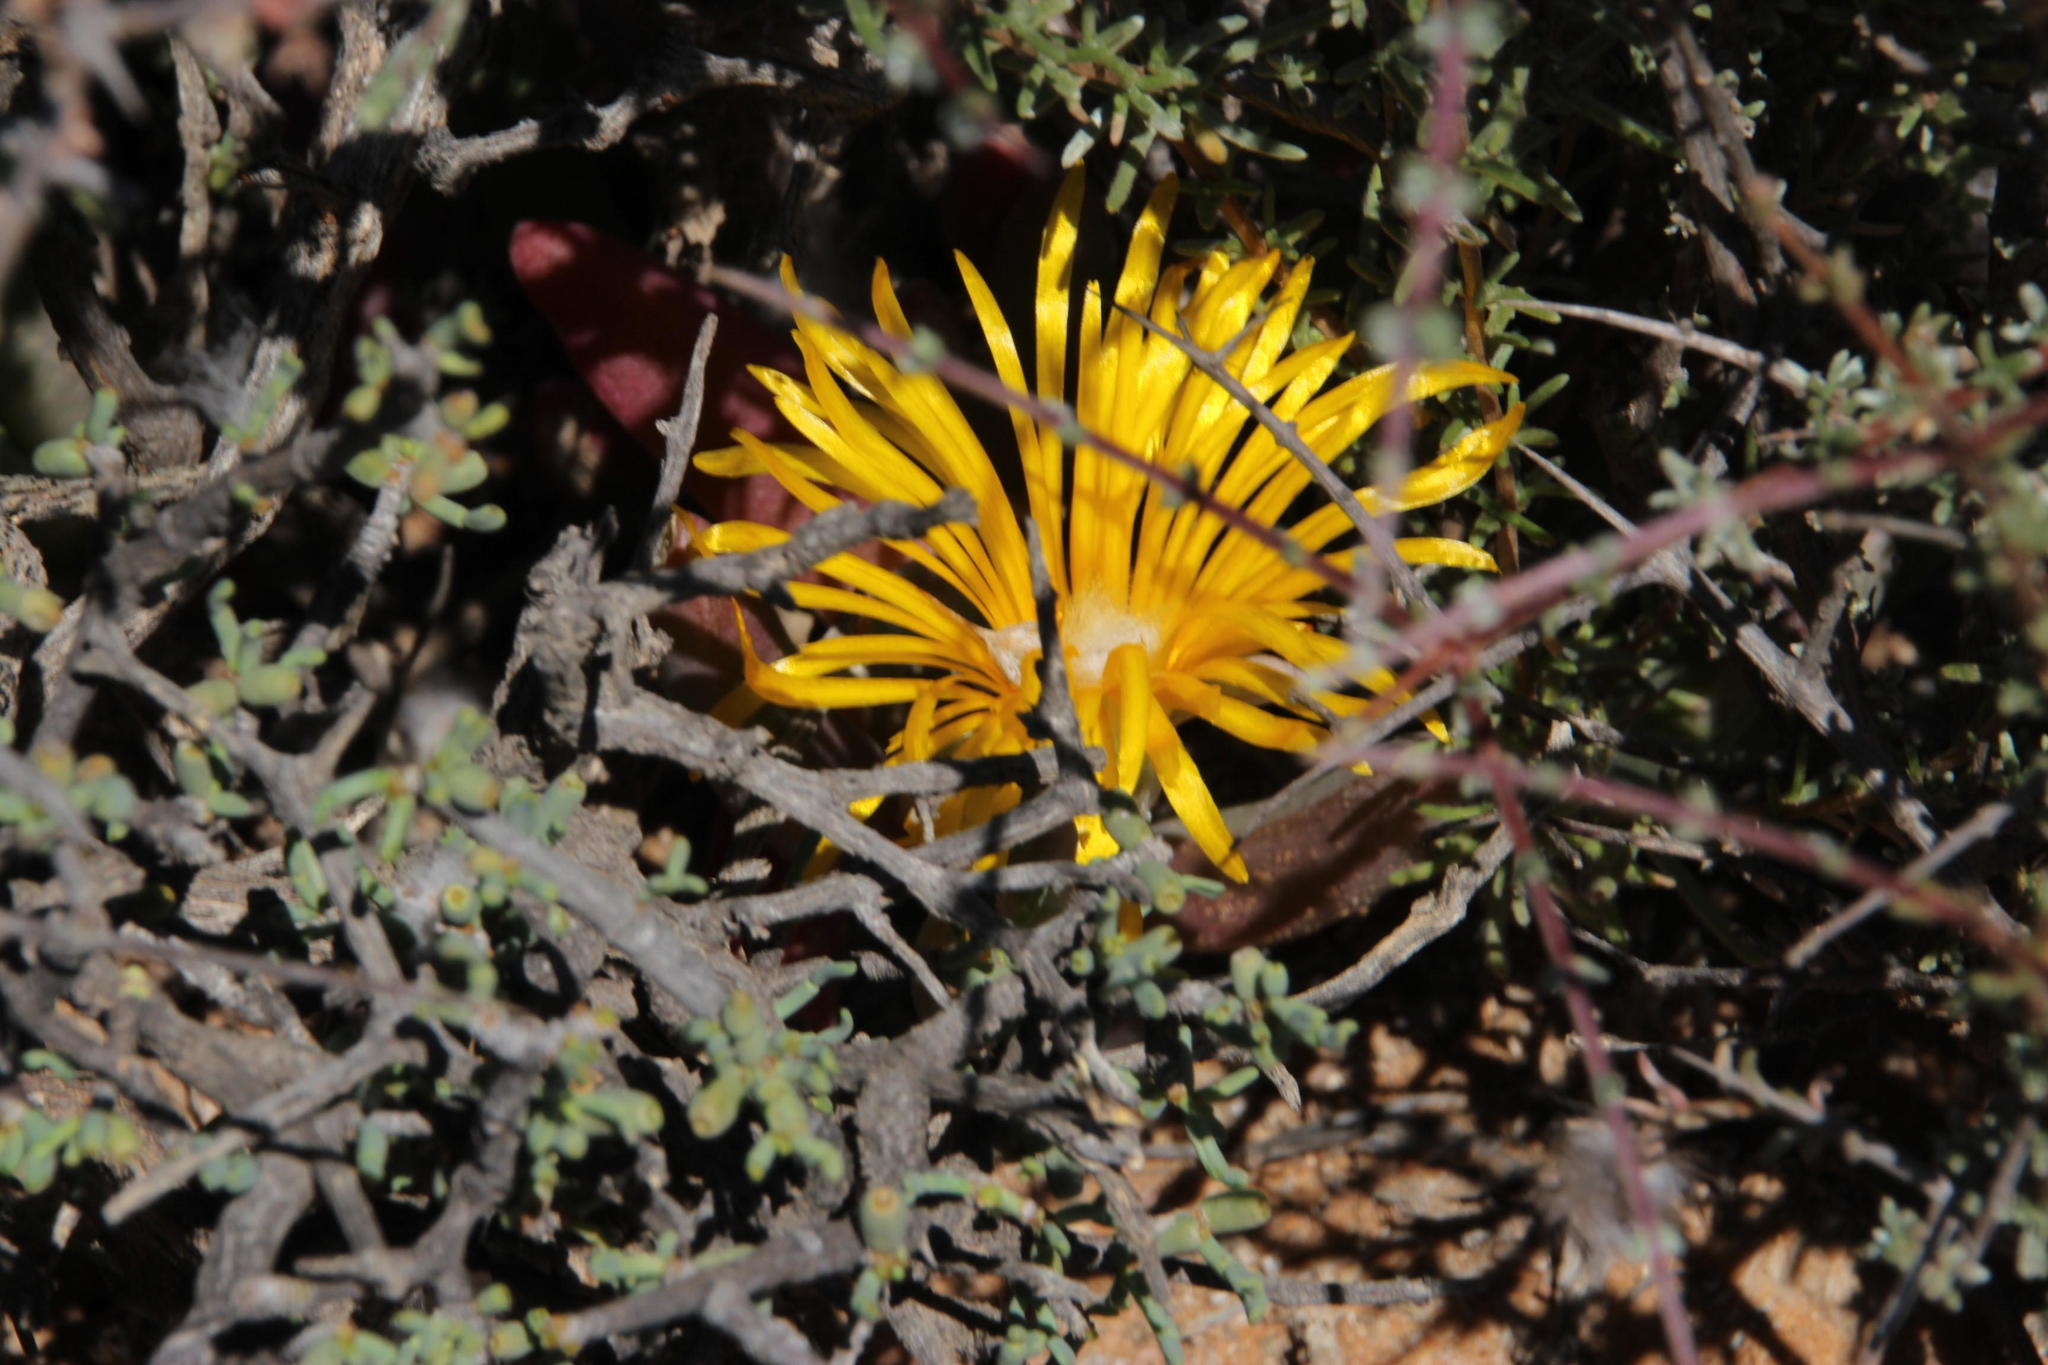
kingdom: Plantae
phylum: Tracheophyta
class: Magnoliopsida
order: Caryophyllales
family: Aizoaceae
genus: Malephora
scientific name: Malephora crassa
